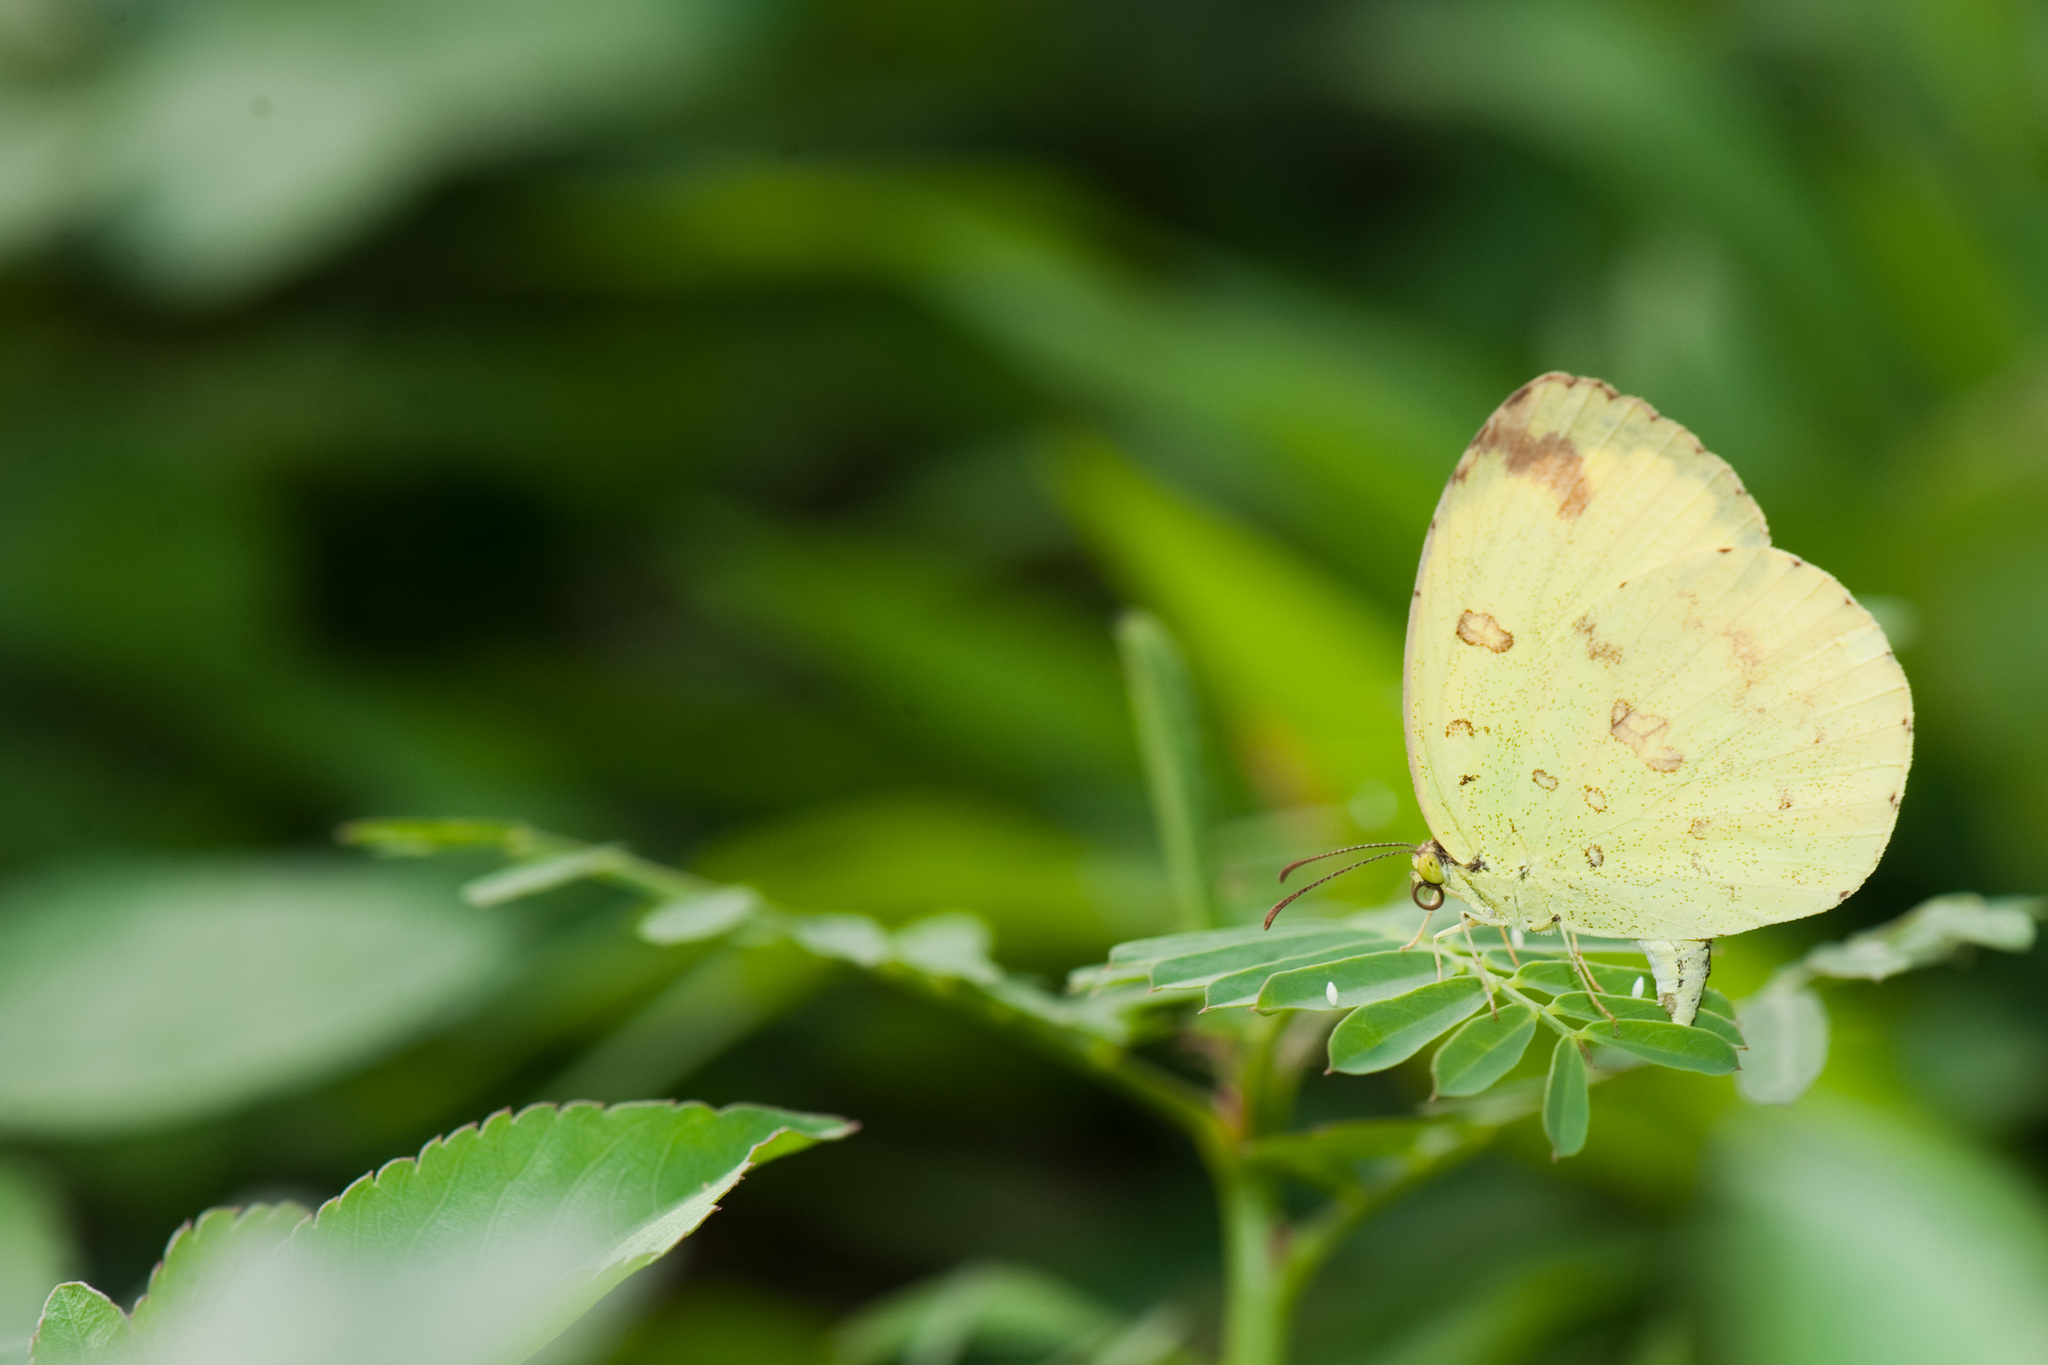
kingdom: Animalia
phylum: Arthropoda
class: Insecta
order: Lepidoptera
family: Pieridae
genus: Eurema
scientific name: Eurema blanda
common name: Three-spot grass yellow
